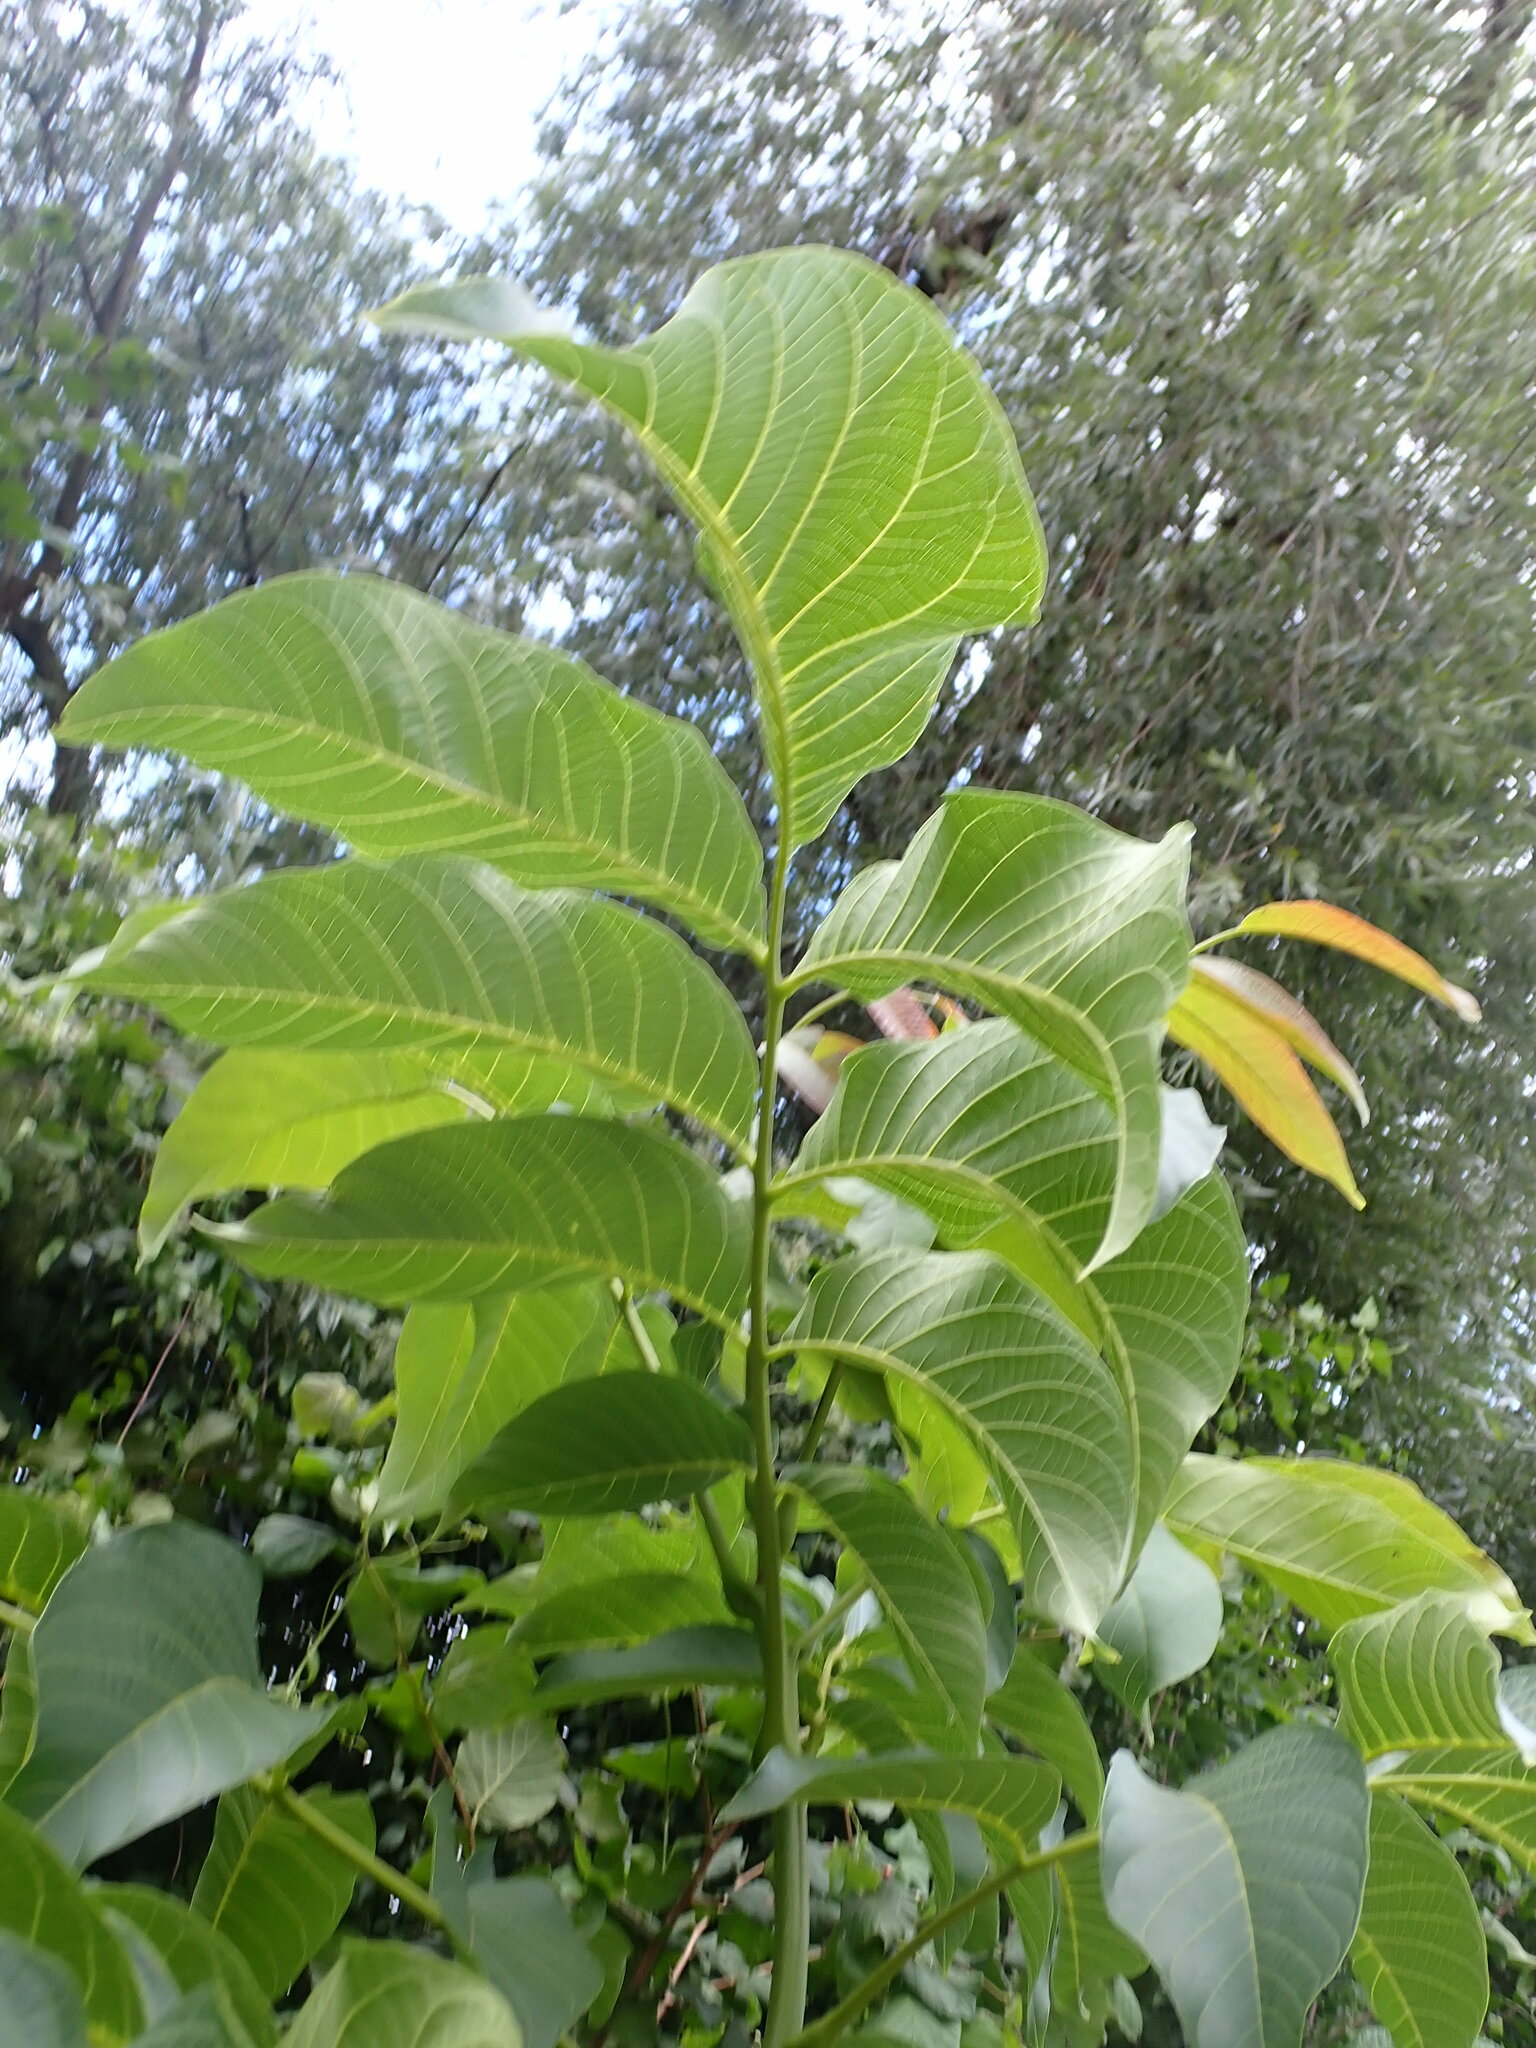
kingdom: Plantae
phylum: Tracheophyta
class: Magnoliopsida
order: Fagales
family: Juglandaceae
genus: Juglans
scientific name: Juglans regia
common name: Walnut
